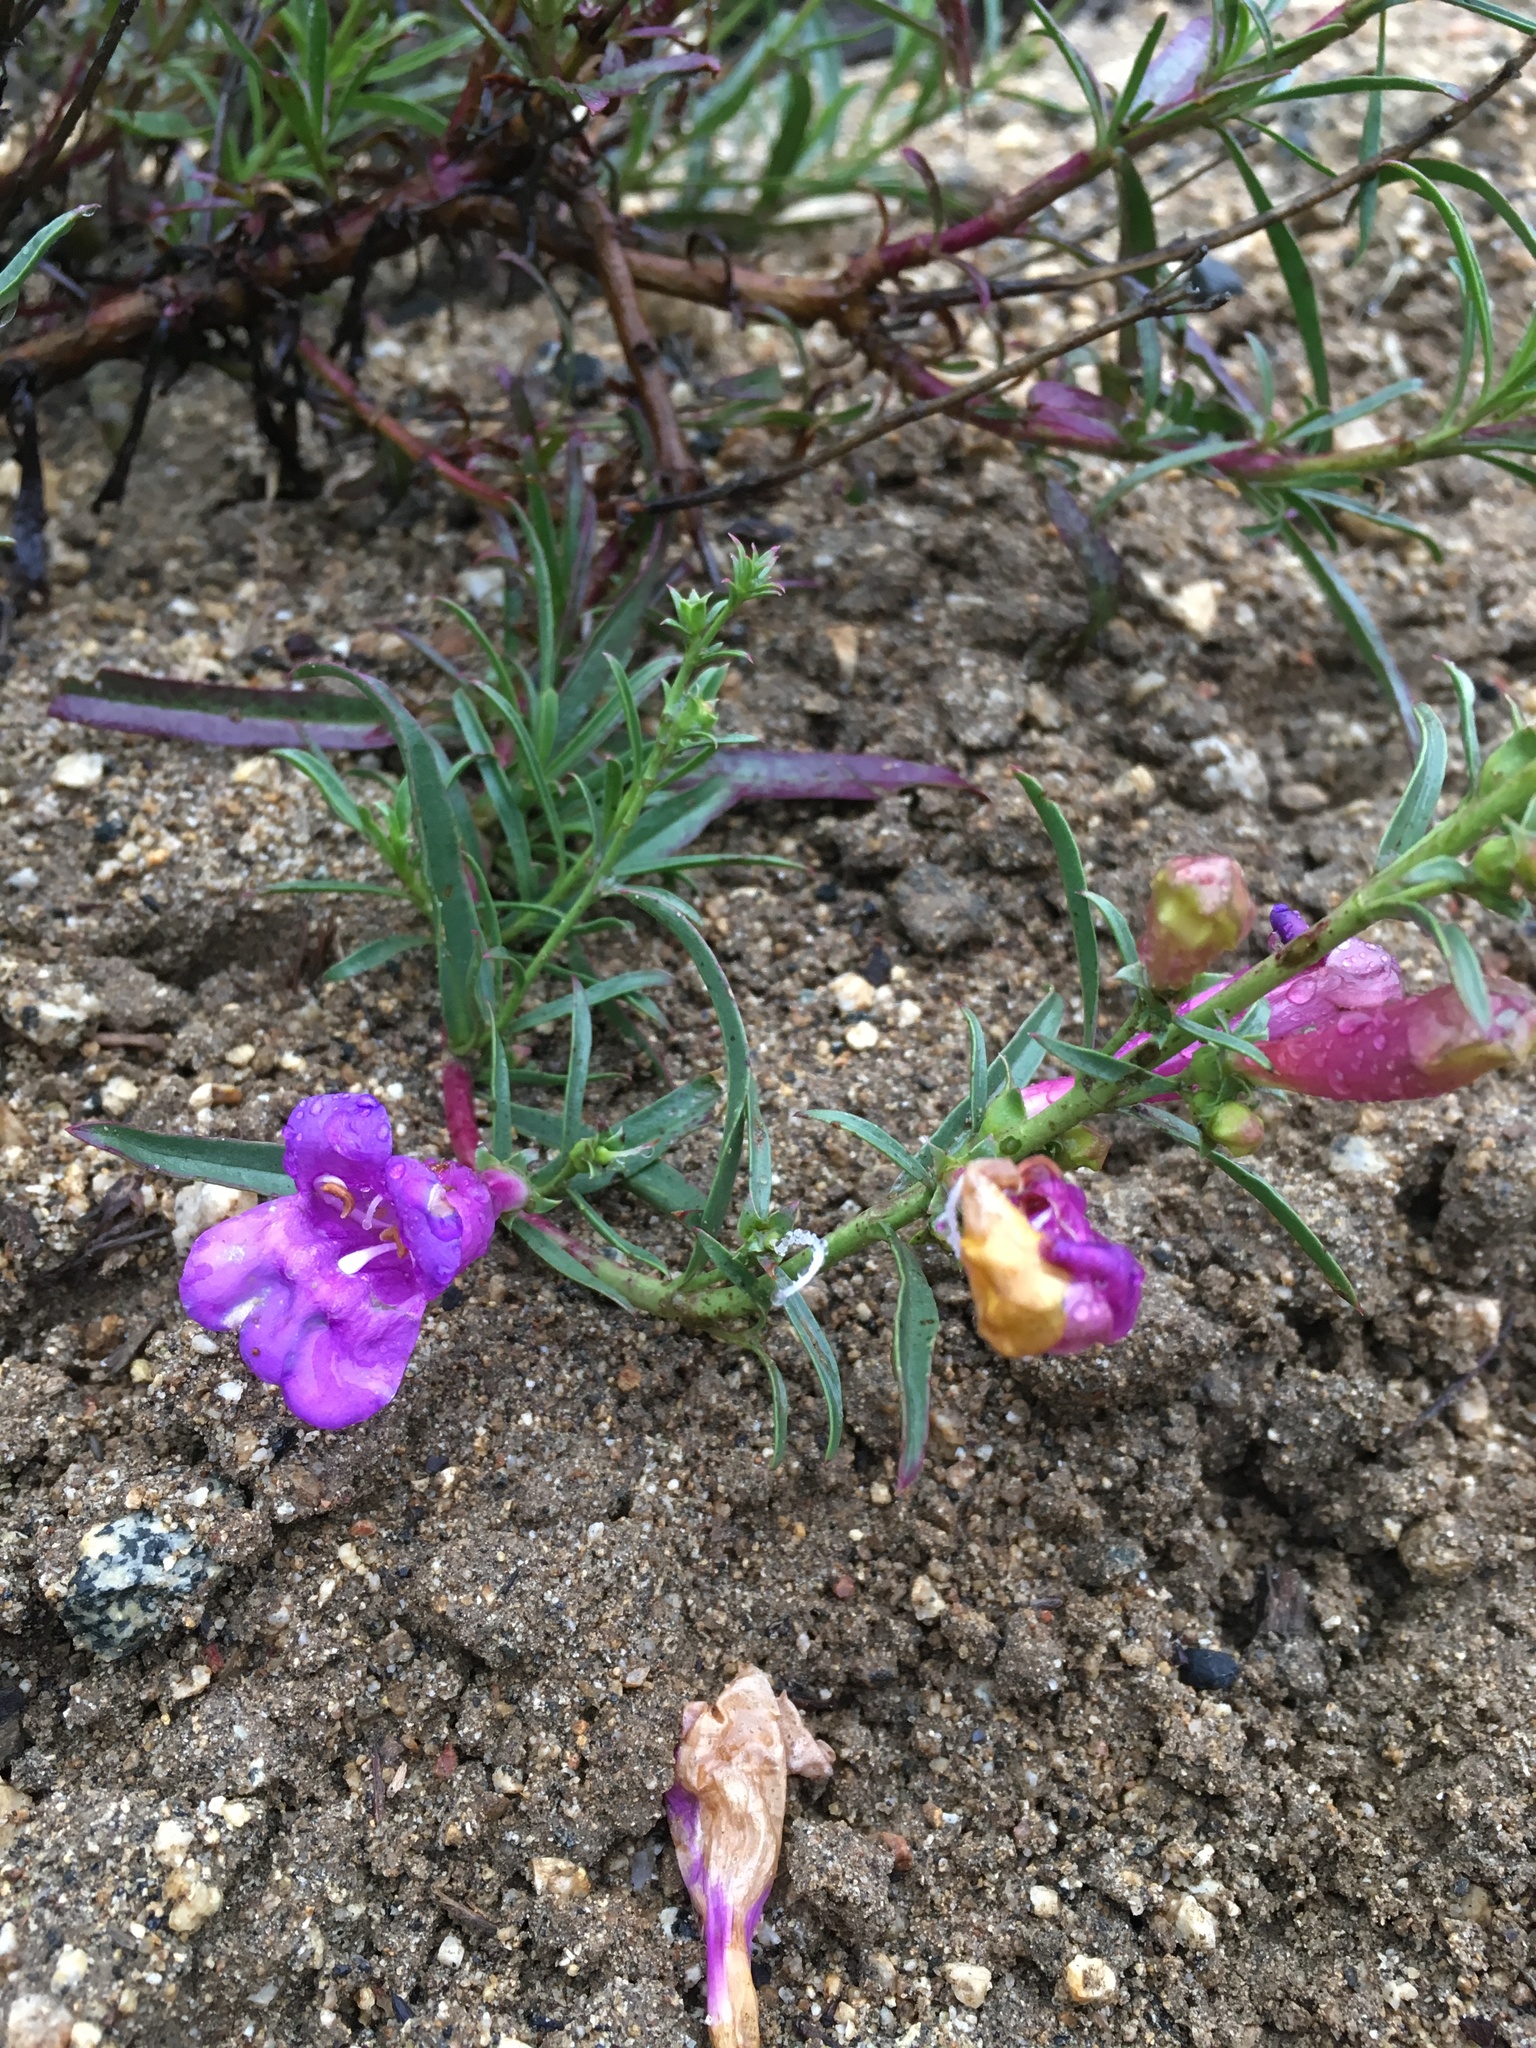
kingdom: Plantae
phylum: Tracheophyta
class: Magnoliopsida
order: Lamiales
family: Plantaginaceae
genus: Penstemon
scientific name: Penstemon heterophyllus
